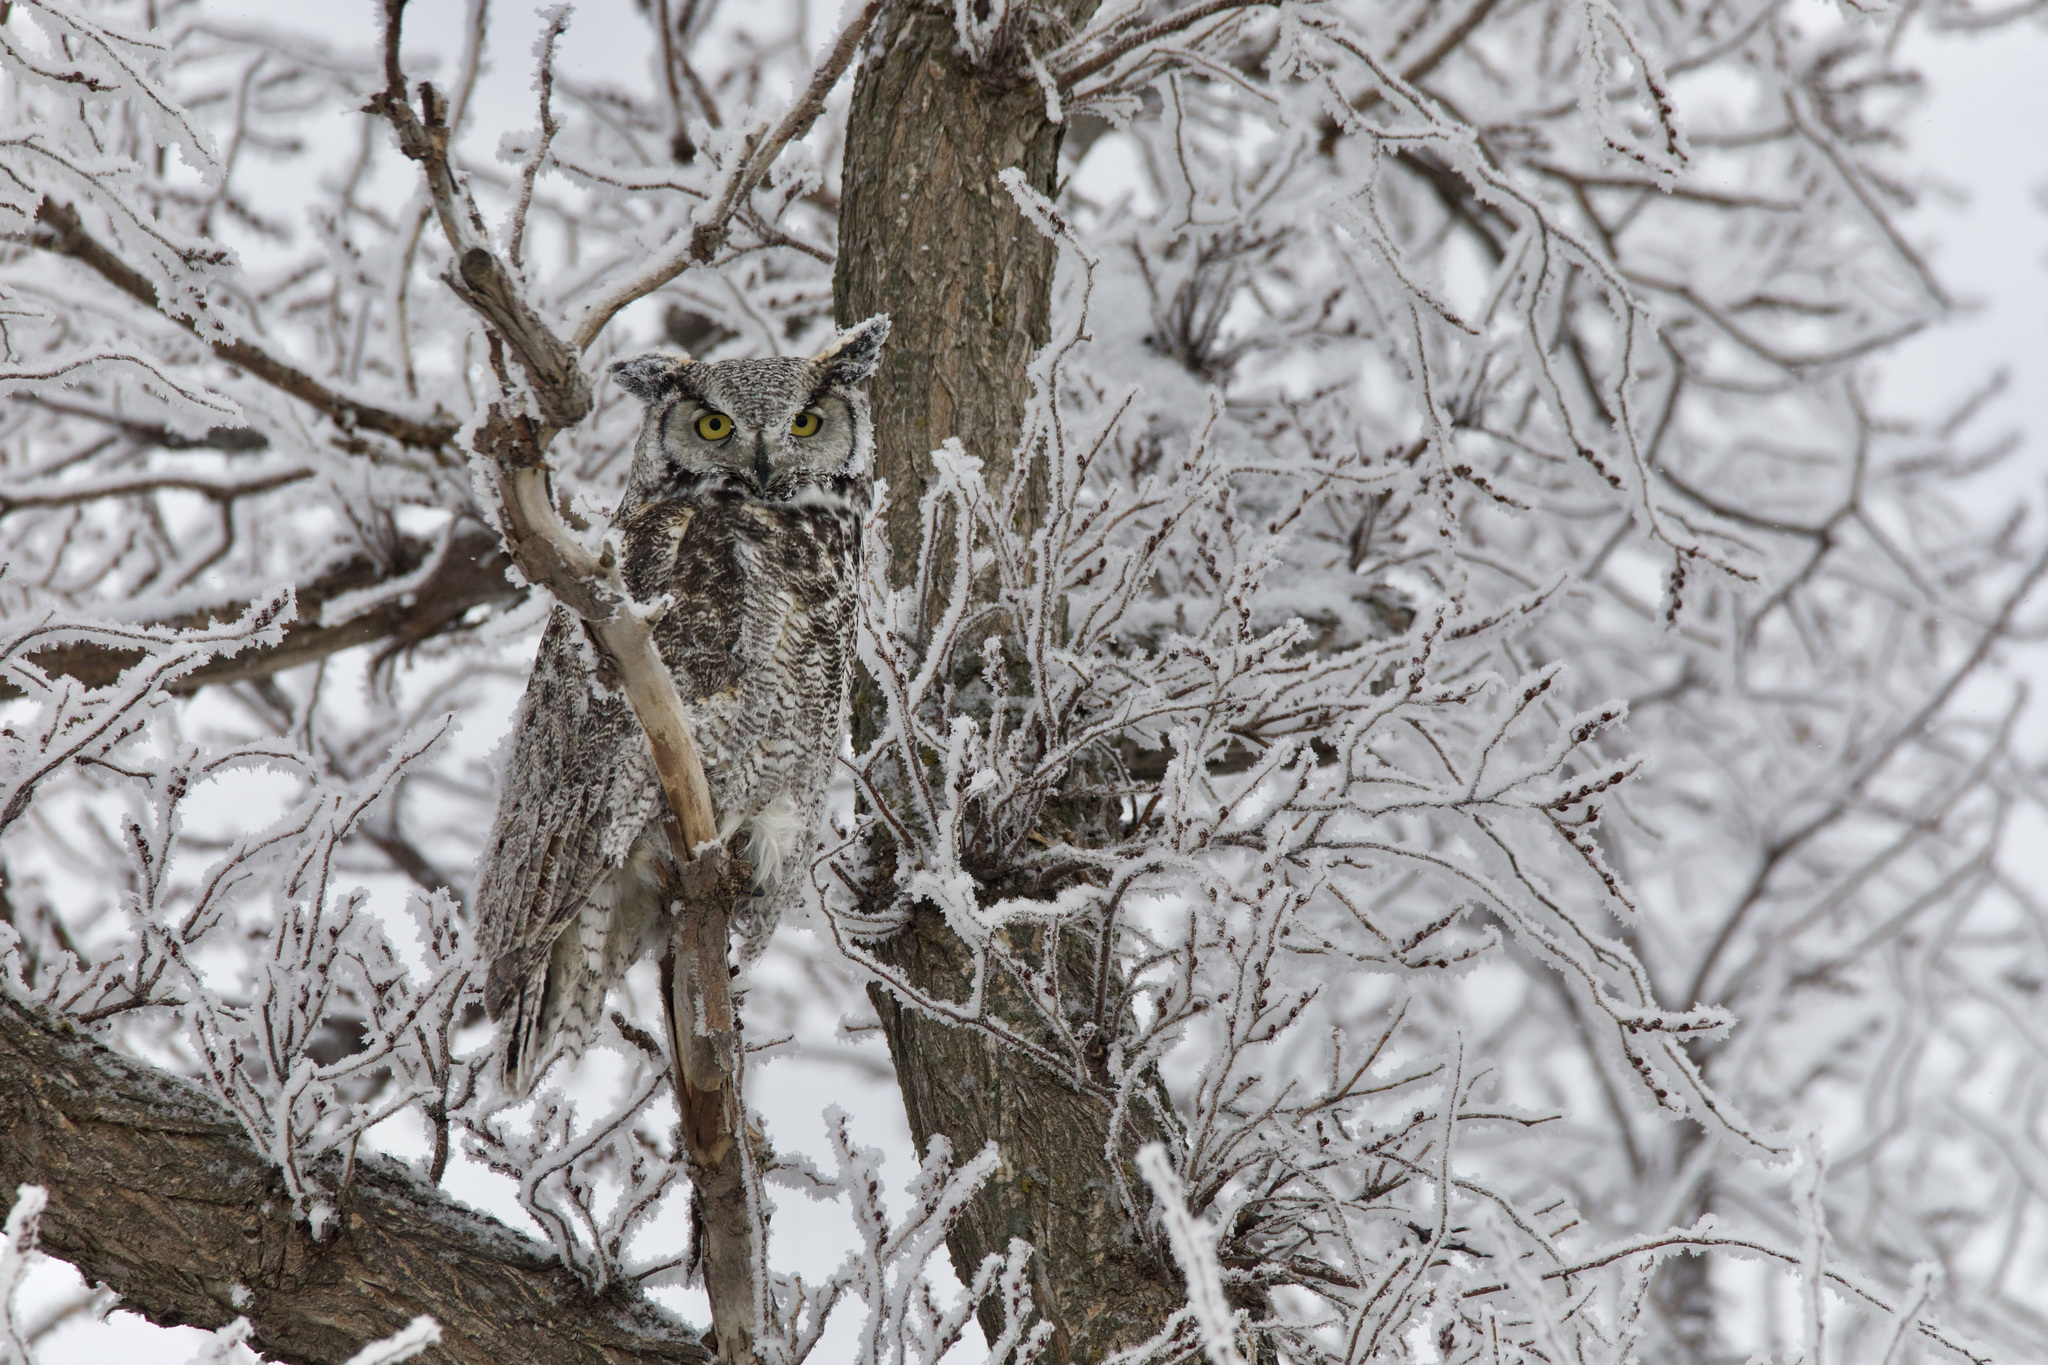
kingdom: Animalia
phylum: Chordata
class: Aves
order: Strigiformes
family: Strigidae
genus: Bubo
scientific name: Bubo virginianus
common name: Great horned owl
